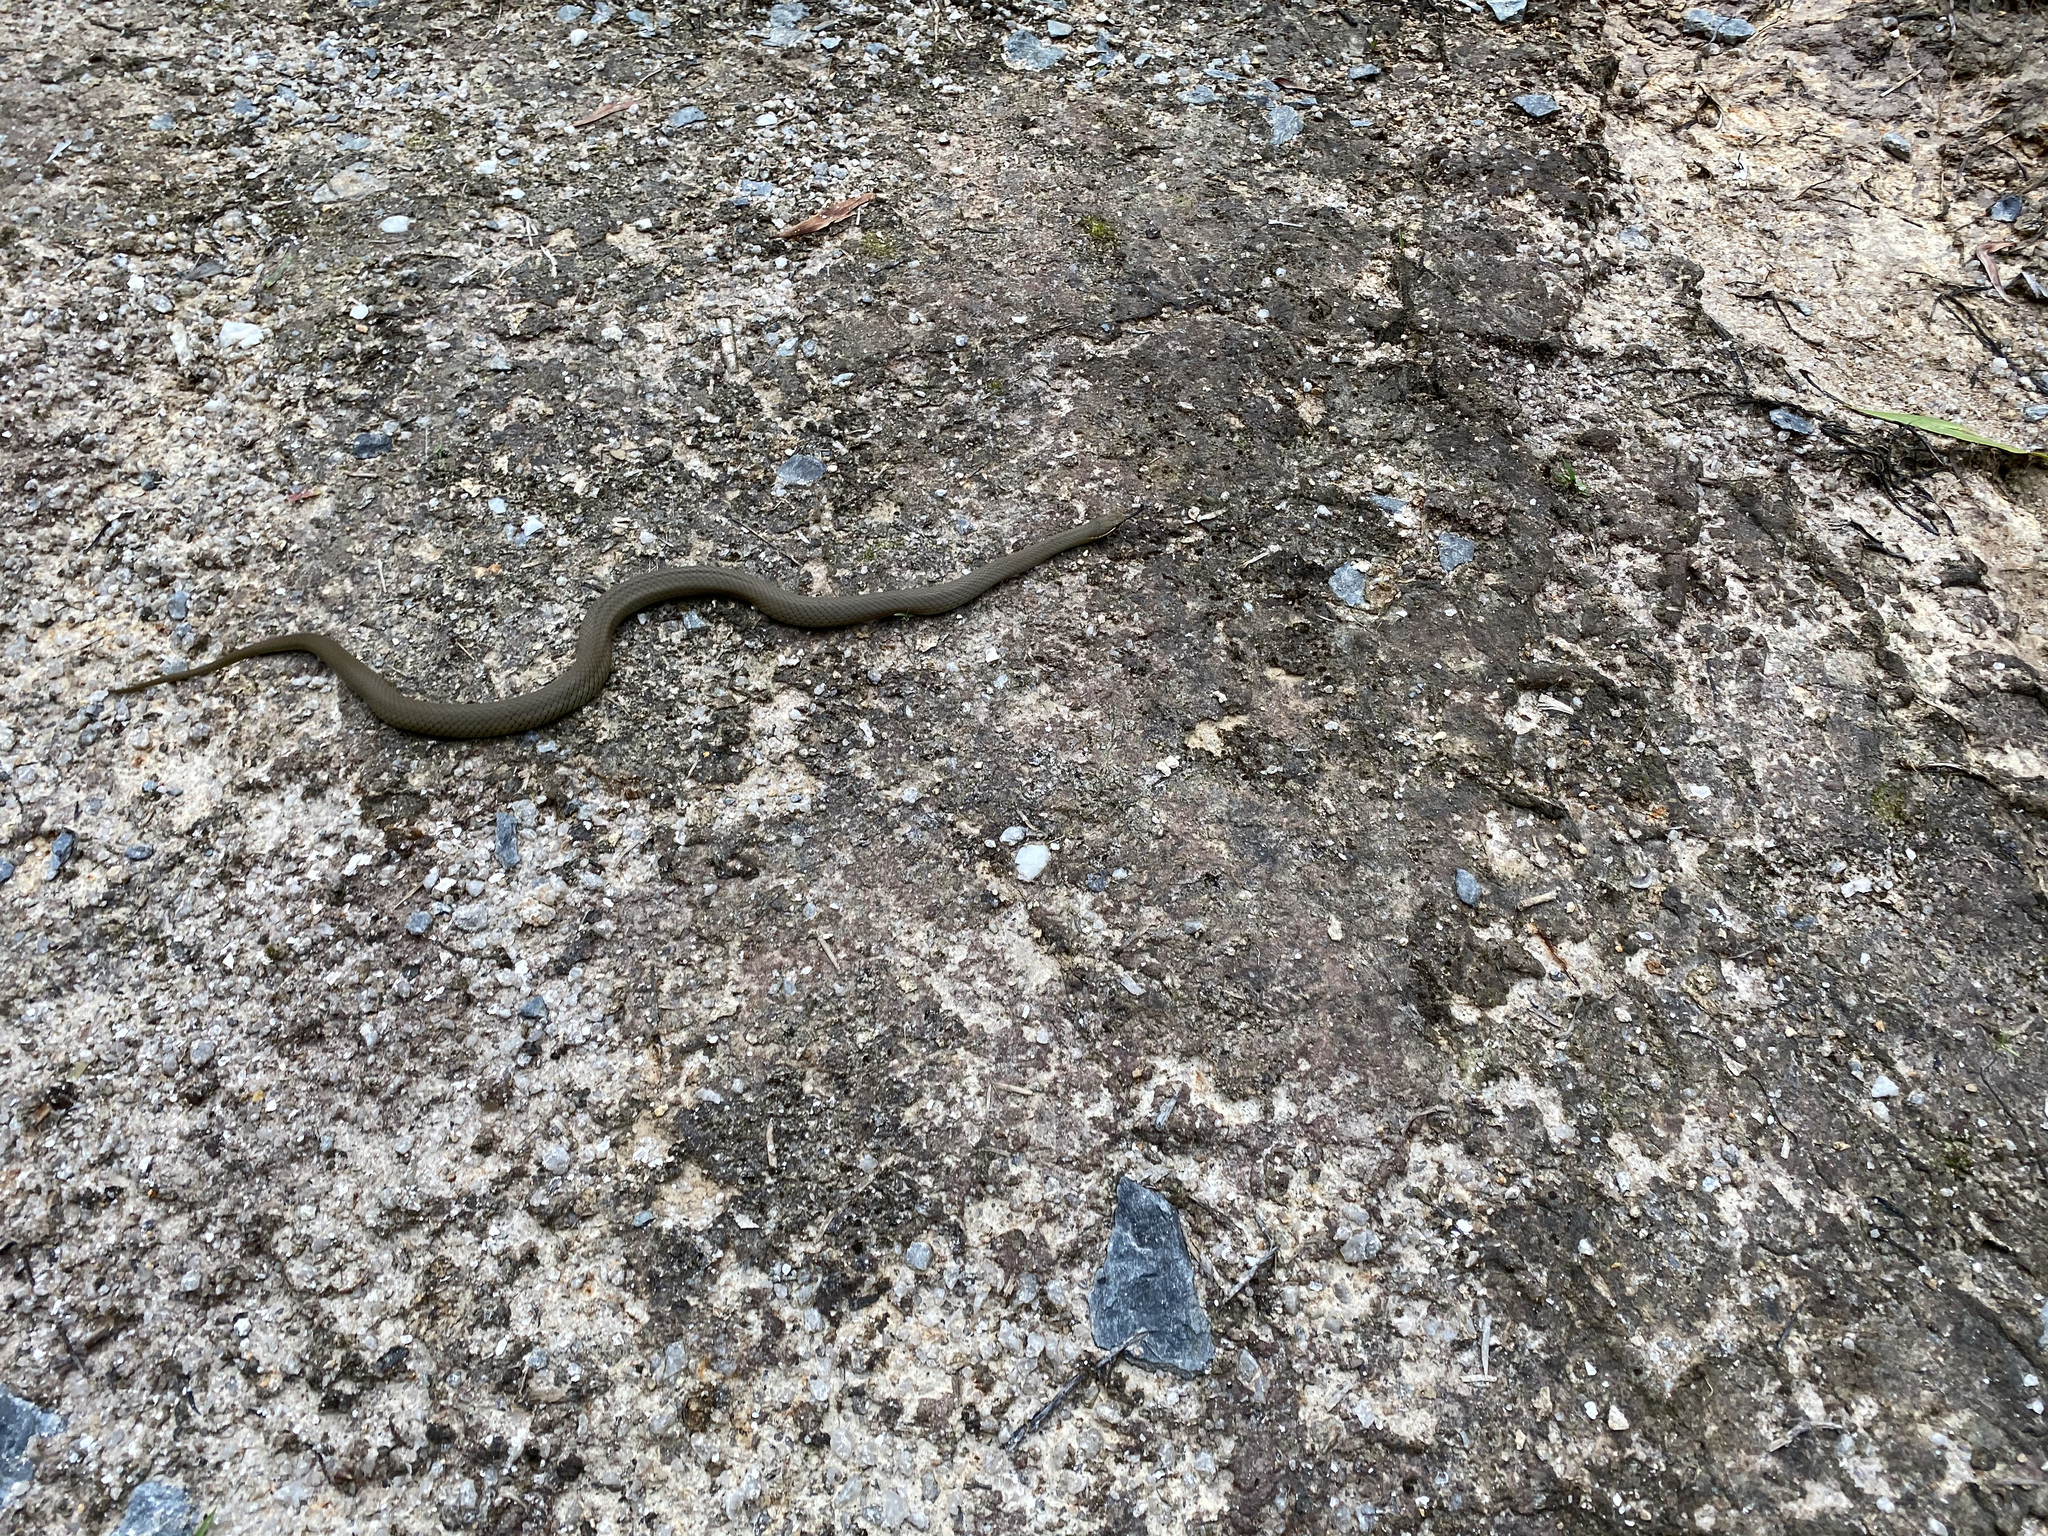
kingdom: Animalia
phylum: Chordata
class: Squamata
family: Elapidae
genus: Hemiaspis
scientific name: Hemiaspis signata
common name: Black-bellied swamp snake
